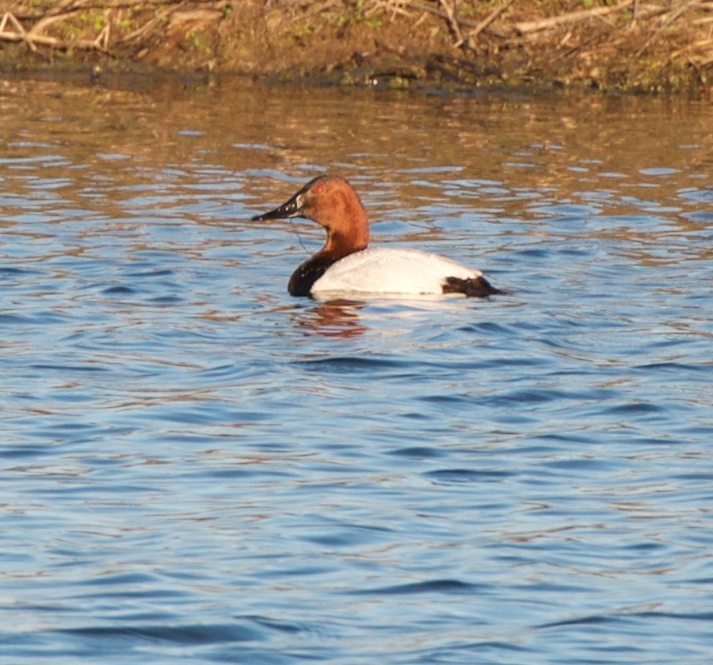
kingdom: Animalia
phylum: Chordata
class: Aves
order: Anseriformes
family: Anatidae
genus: Aythya
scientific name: Aythya valisineria
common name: Canvasback
